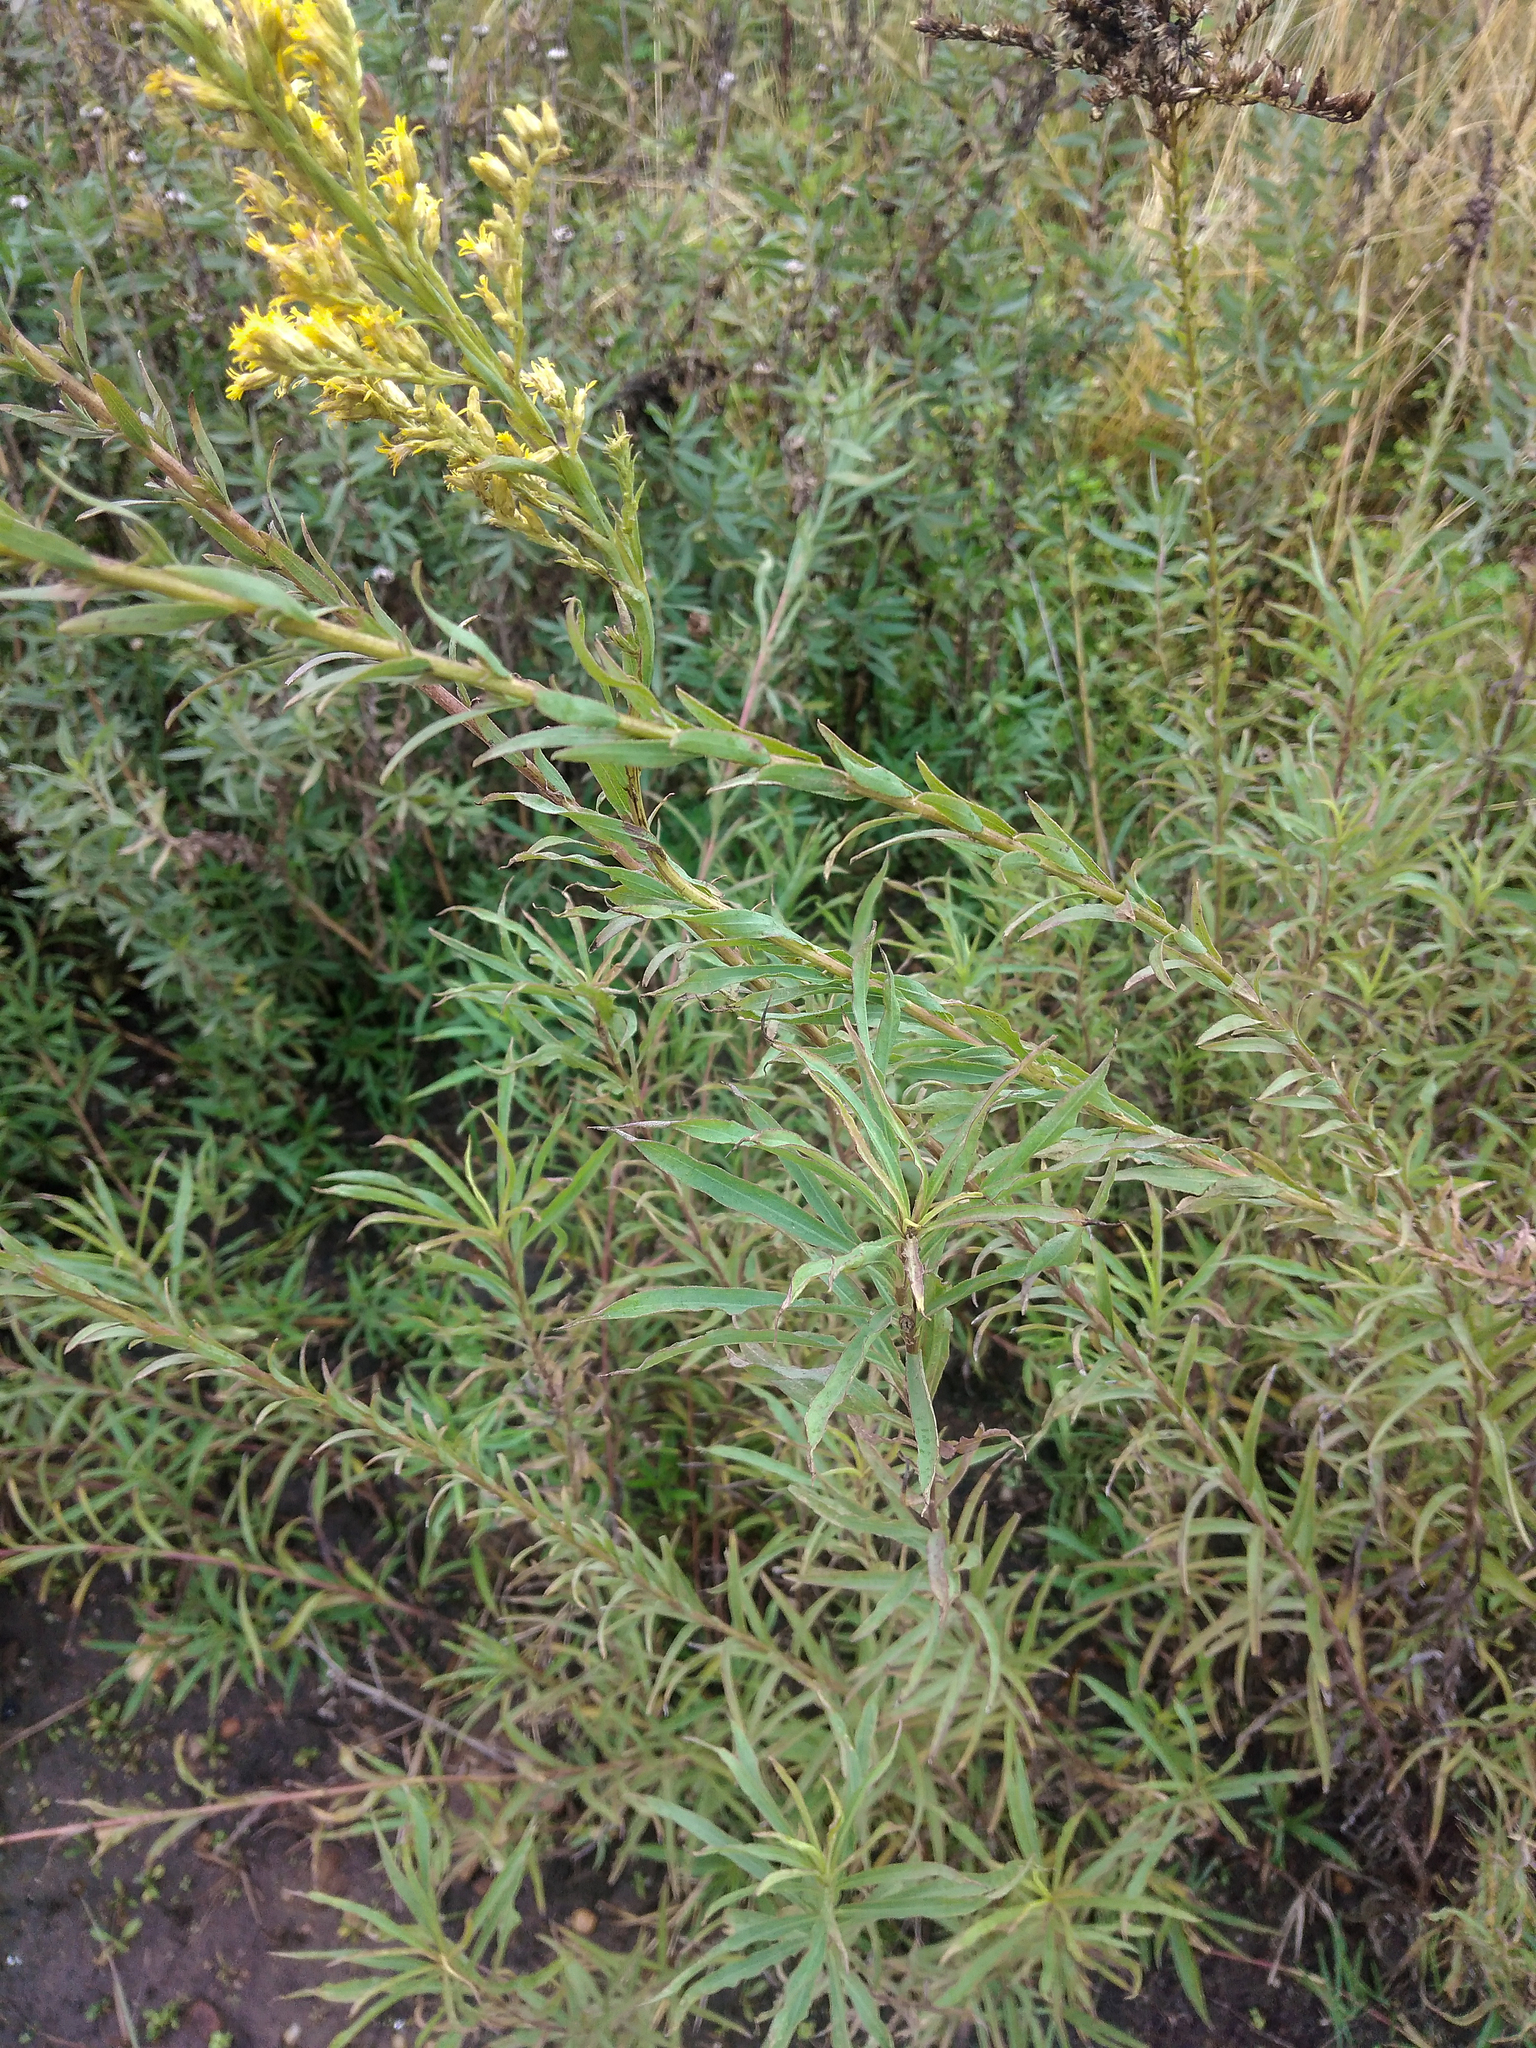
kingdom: Plantae
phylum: Tracheophyta
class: Magnoliopsida
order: Asterales
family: Asteraceae
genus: Solidago
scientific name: Solidago chilensis
